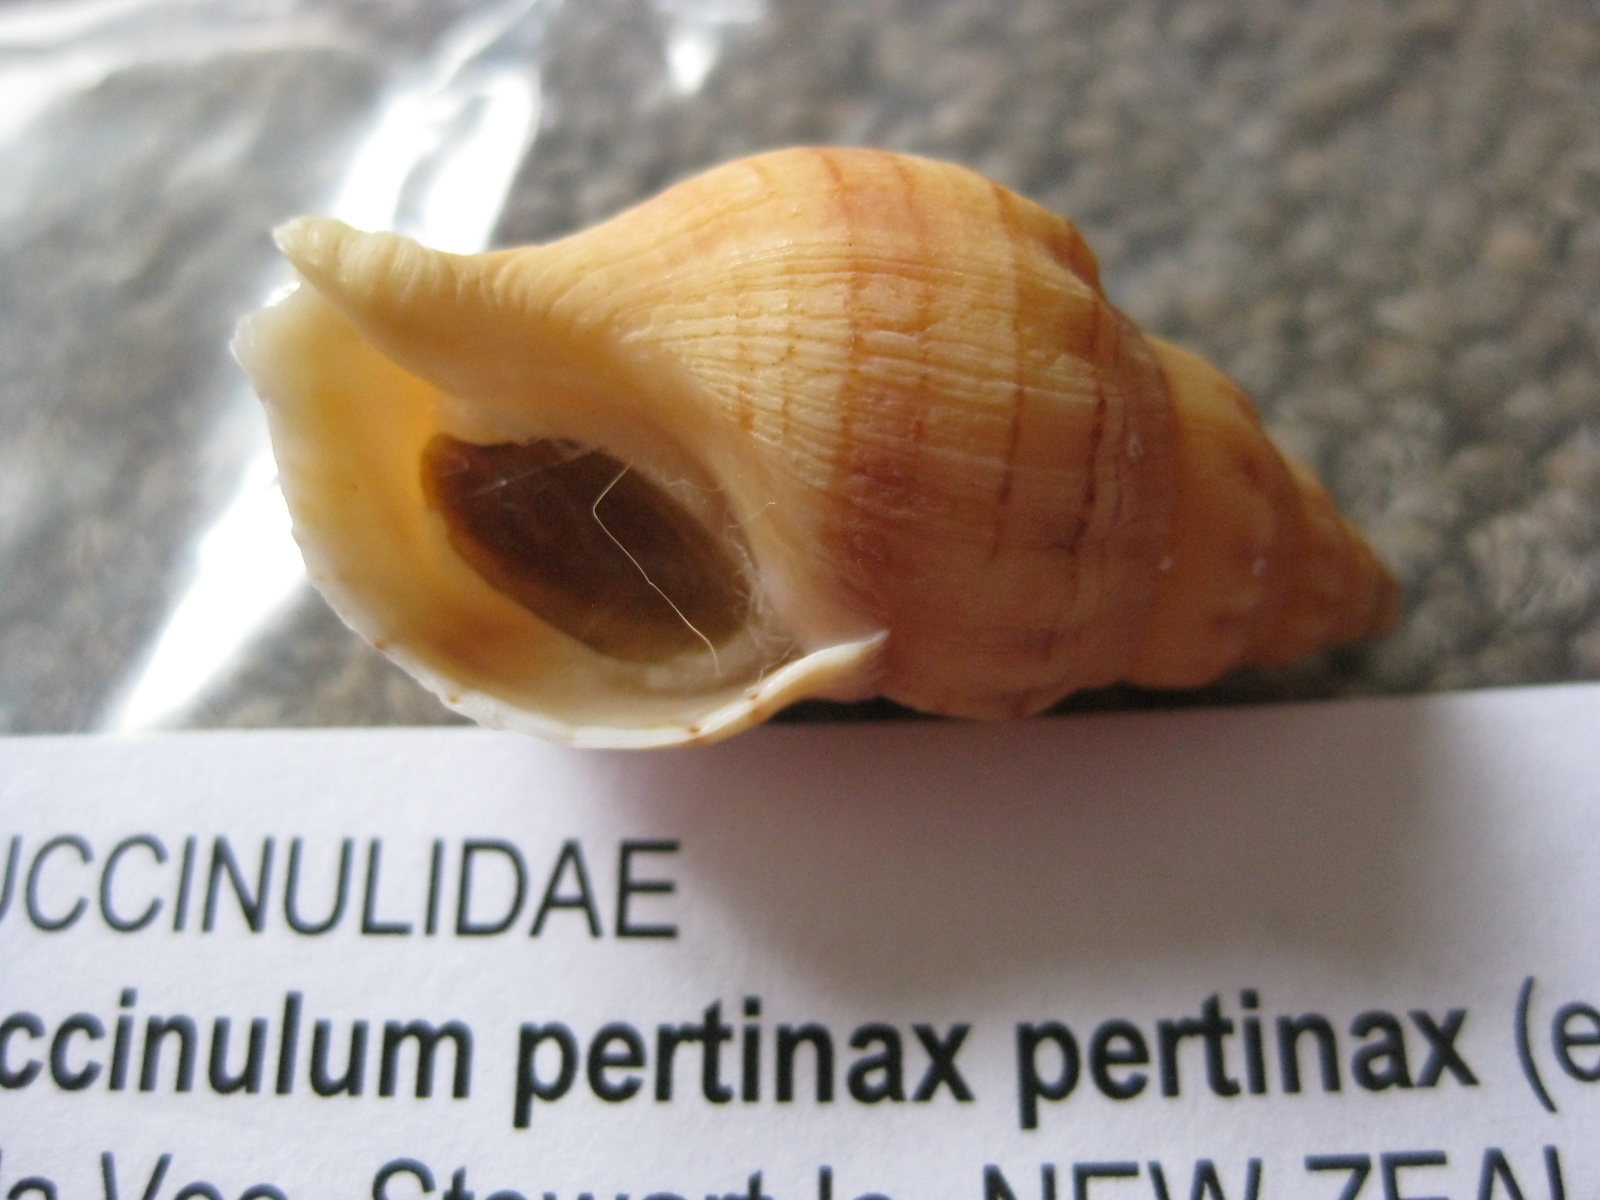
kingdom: Animalia
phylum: Mollusca
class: Gastropoda
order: Neogastropoda
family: Tudiclidae
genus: Buccinulum
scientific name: Buccinulum pertinax
